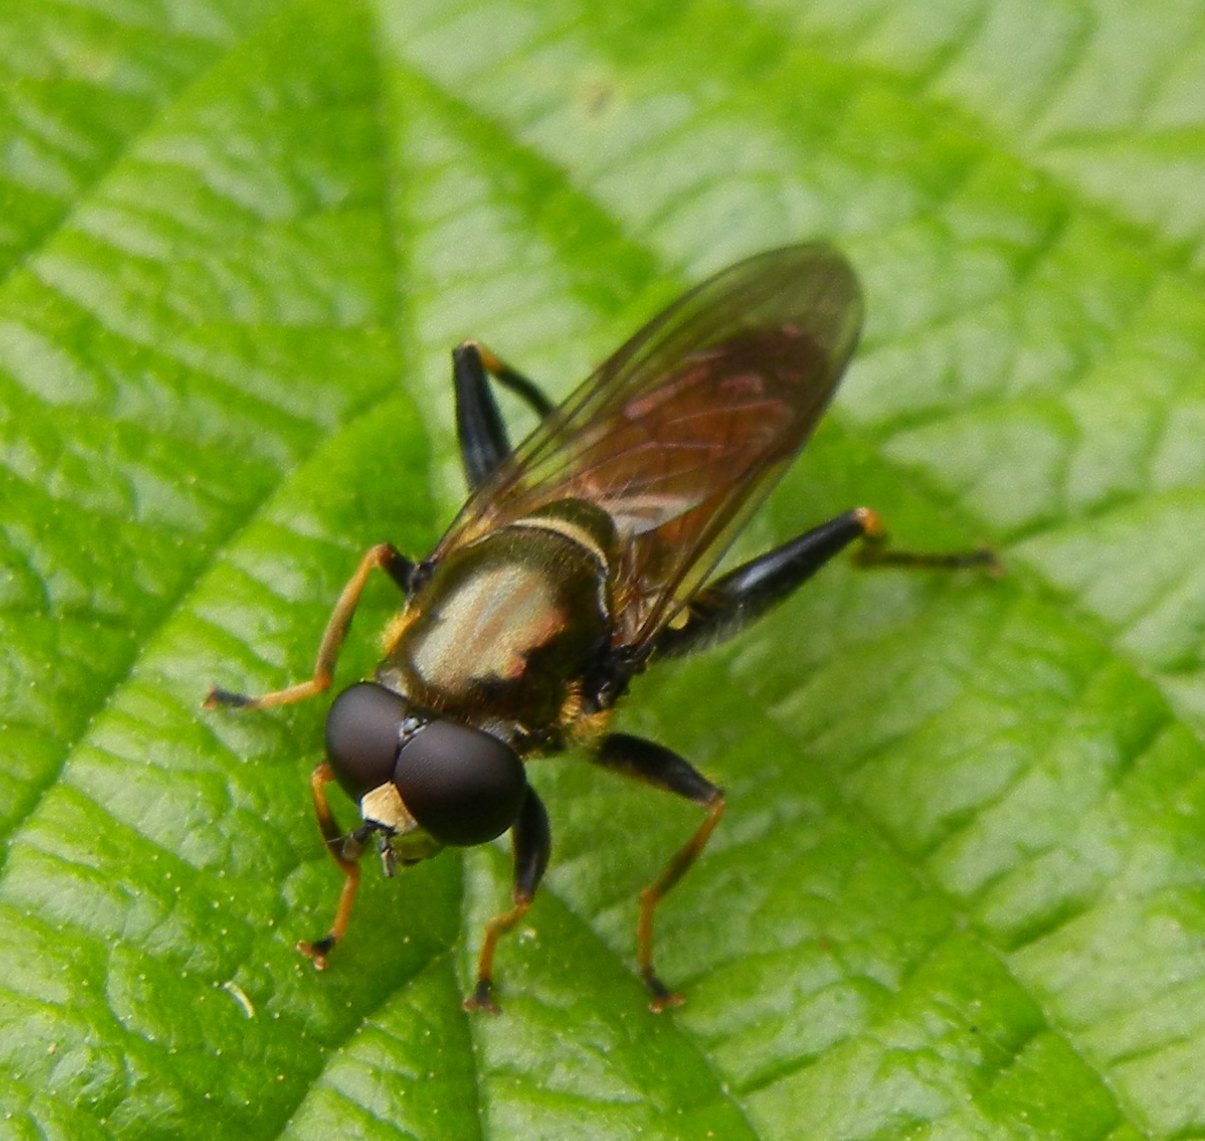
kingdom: Animalia
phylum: Arthropoda
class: Insecta
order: Diptera
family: Syrphidae
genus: Xylota
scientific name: Xylota segnis
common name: Brown-toed forest fly
